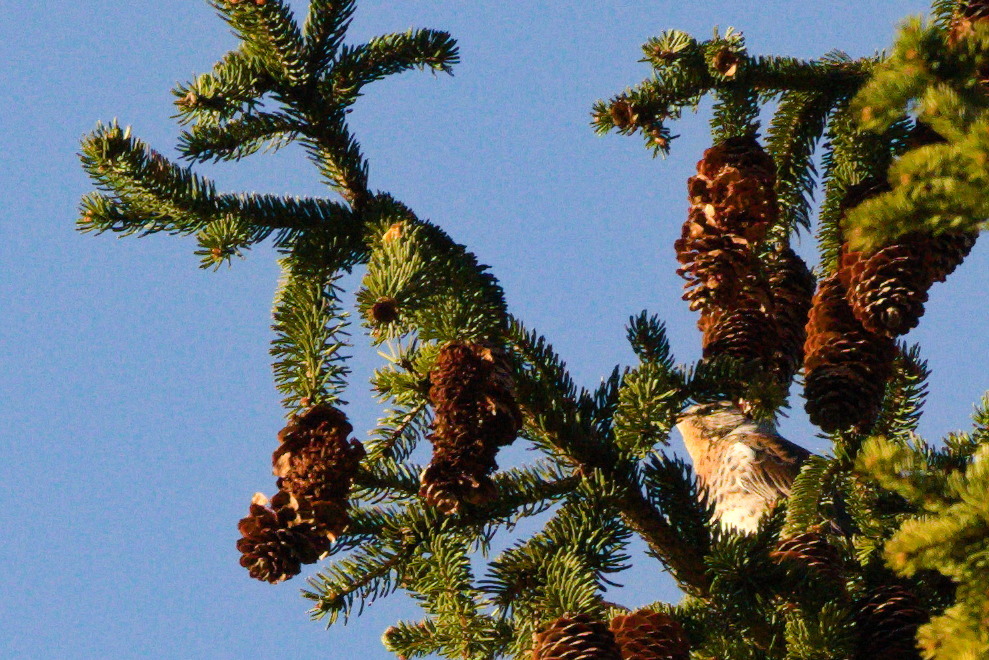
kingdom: Animalia
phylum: Chordata
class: Aves
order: Passeriformes
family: Turdidae
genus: Turdus
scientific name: Turdus pilaris
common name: Fieldfare
